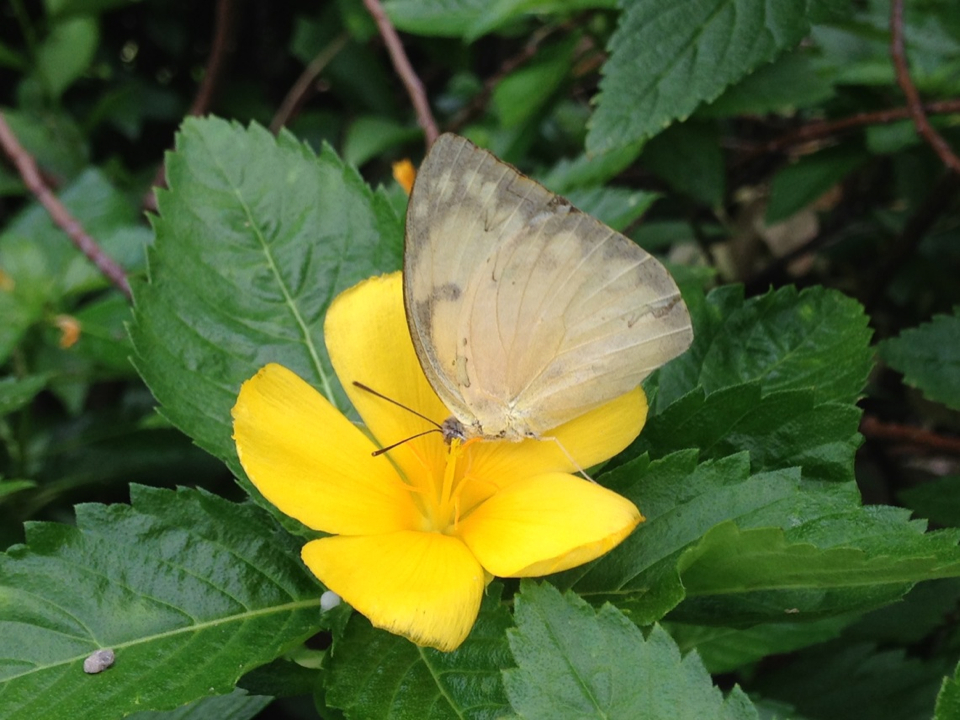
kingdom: Animalia
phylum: Arthropoda
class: Insecta
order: Lepidoptera
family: Pieridae
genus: Catopsilia
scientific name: Catopsilia pomona
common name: Common emigrant
